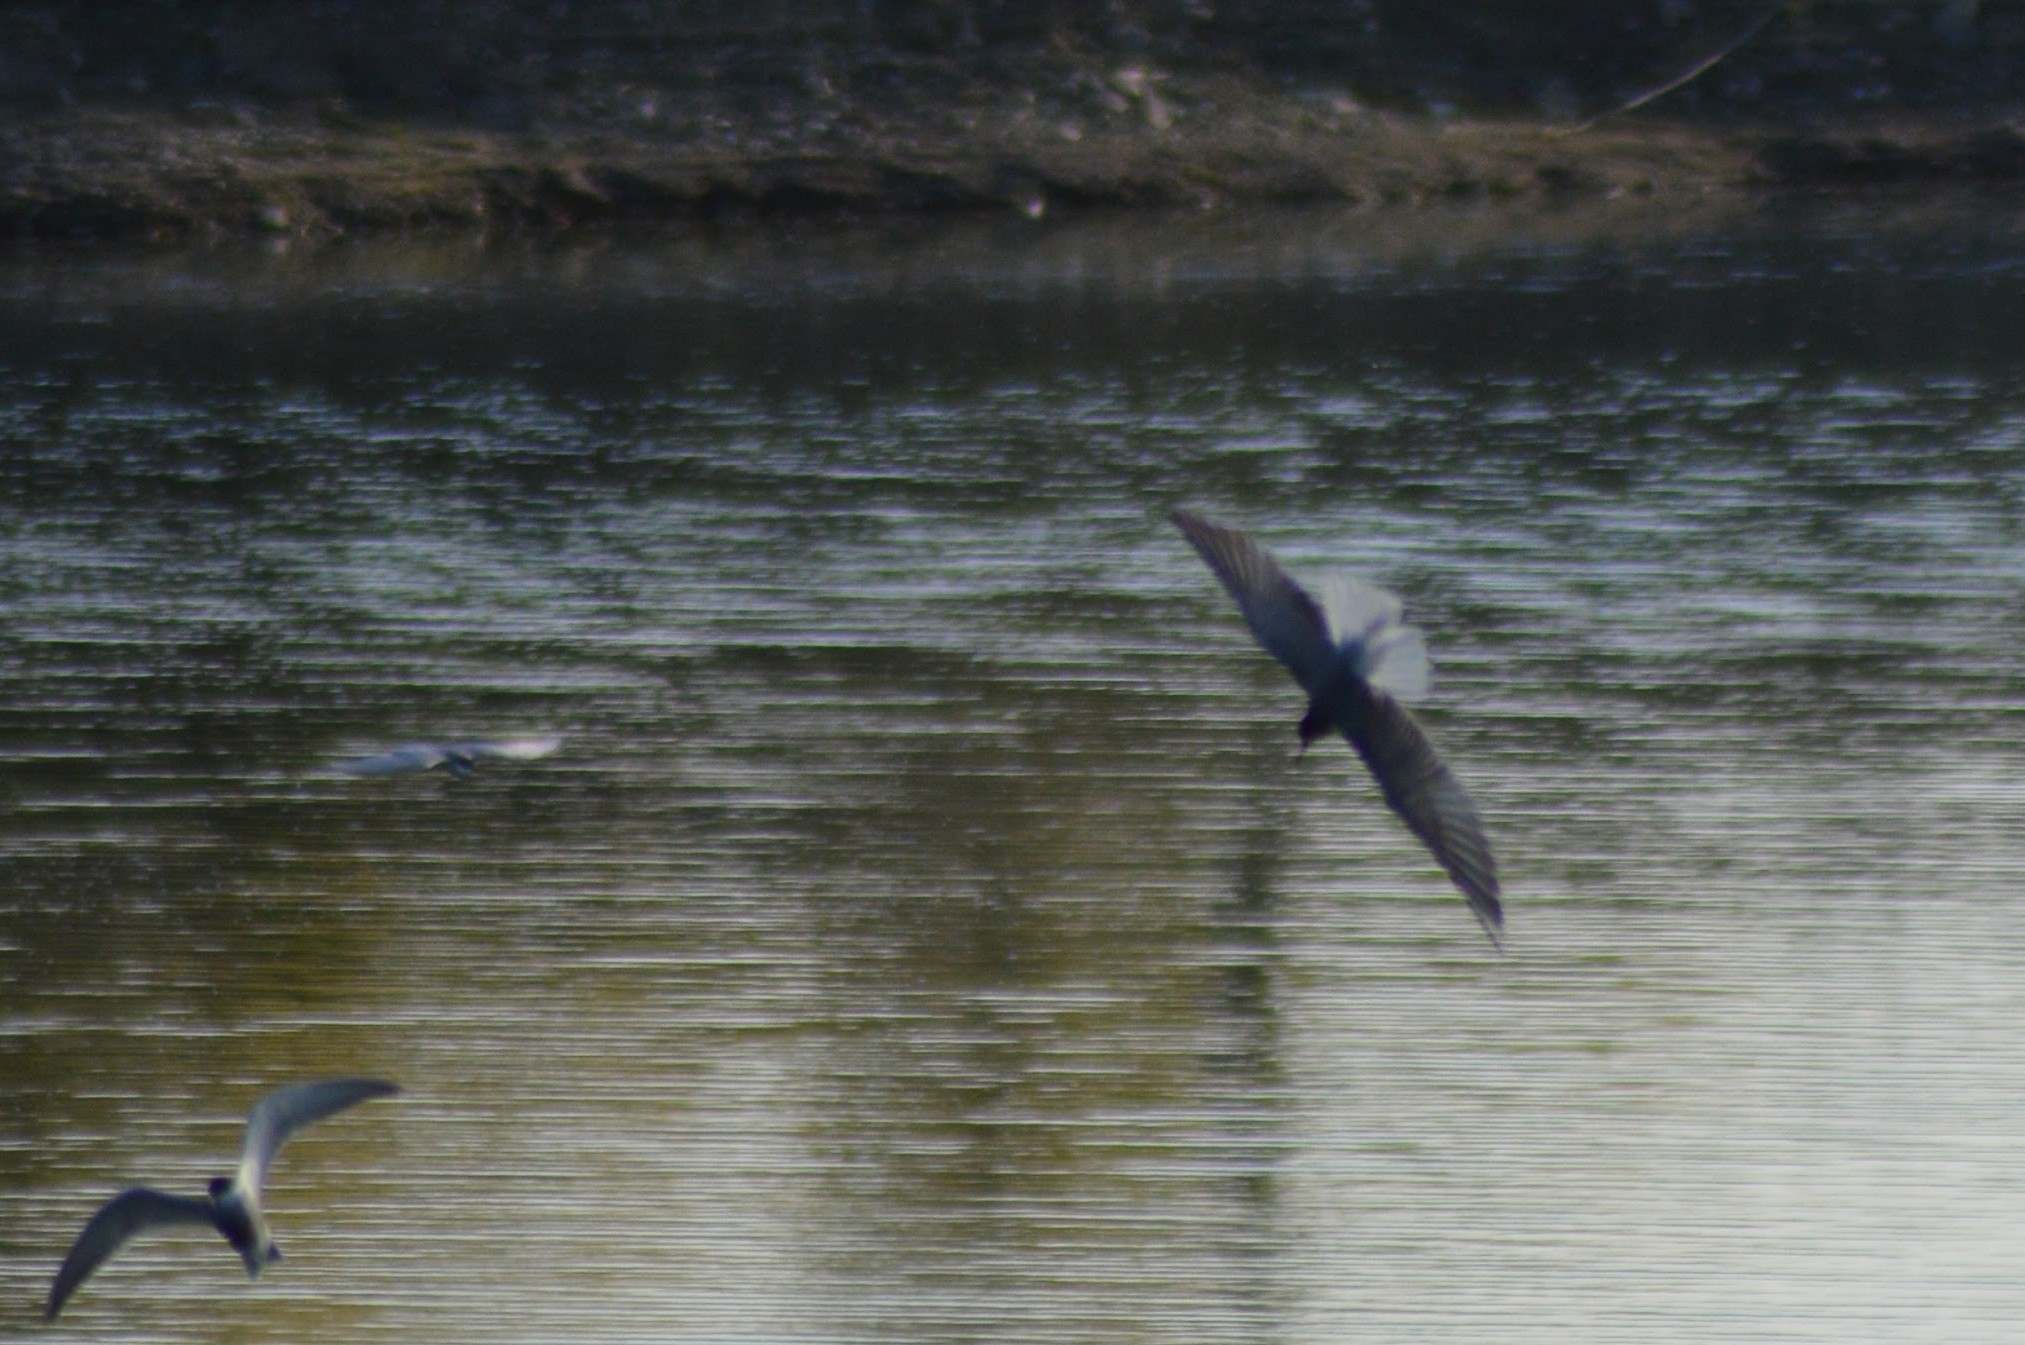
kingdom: Animalia
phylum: Chordata
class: Aves
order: Charadriiformes
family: Laridae
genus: Chlidonias
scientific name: Chlidonias niger
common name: Black tern
